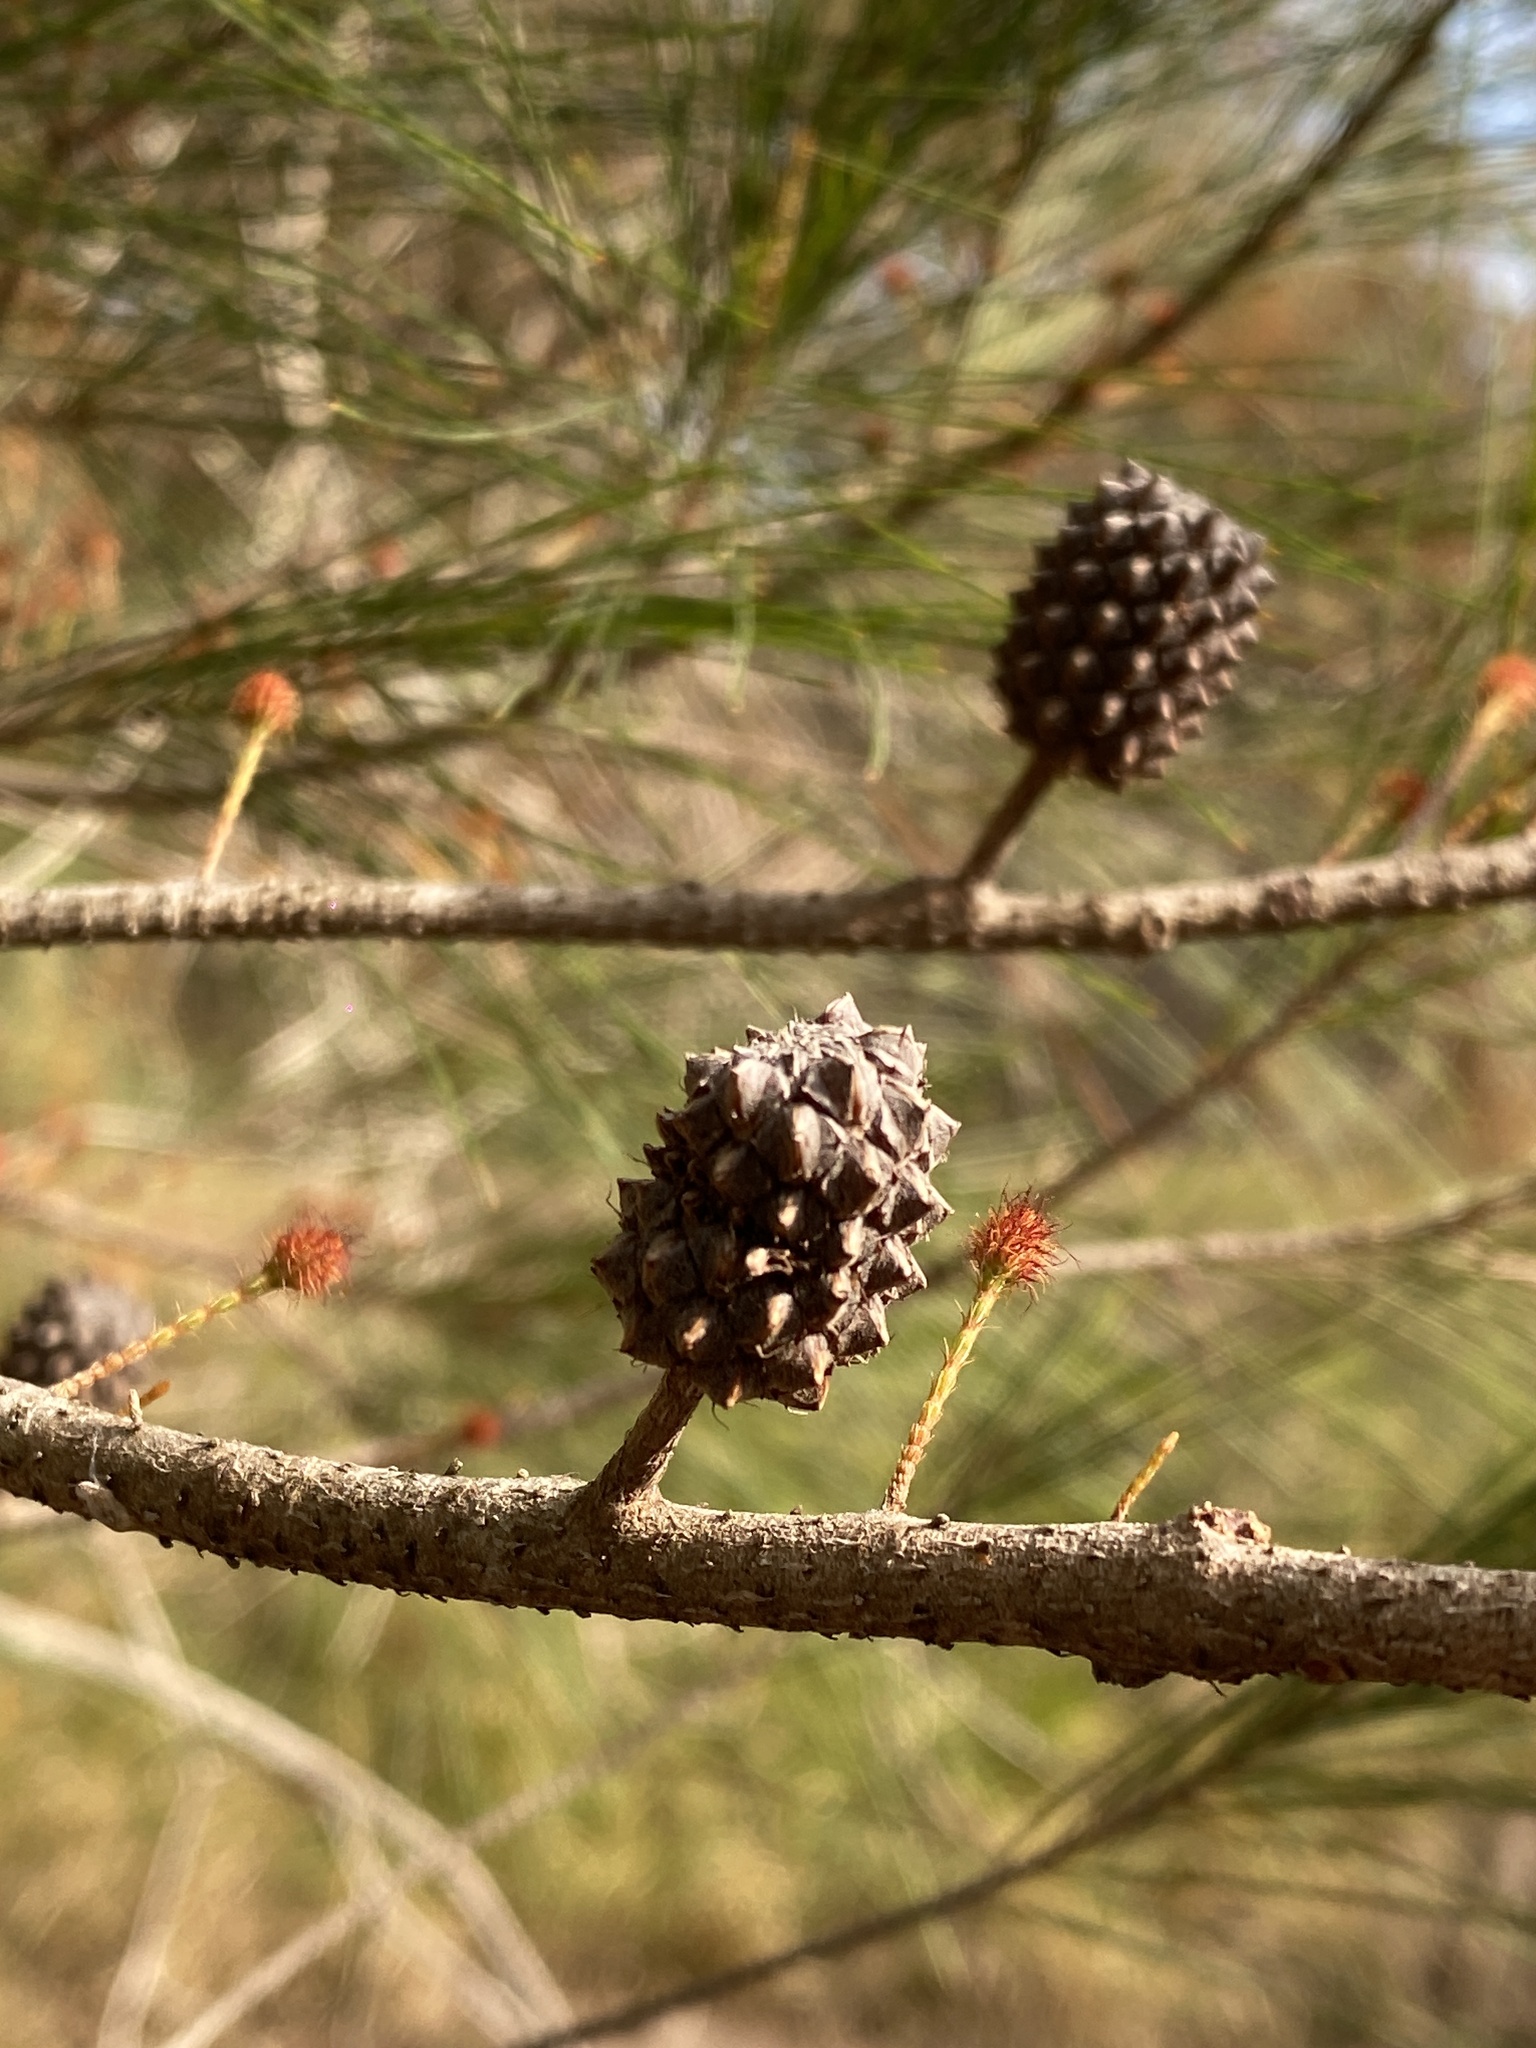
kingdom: Plantae
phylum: Tracheophyta
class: Magnoliopsida
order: Fagales
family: Casuarinaceae
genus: Allocasuarina
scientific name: Allocasuarina littoralis
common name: Black she-oak
